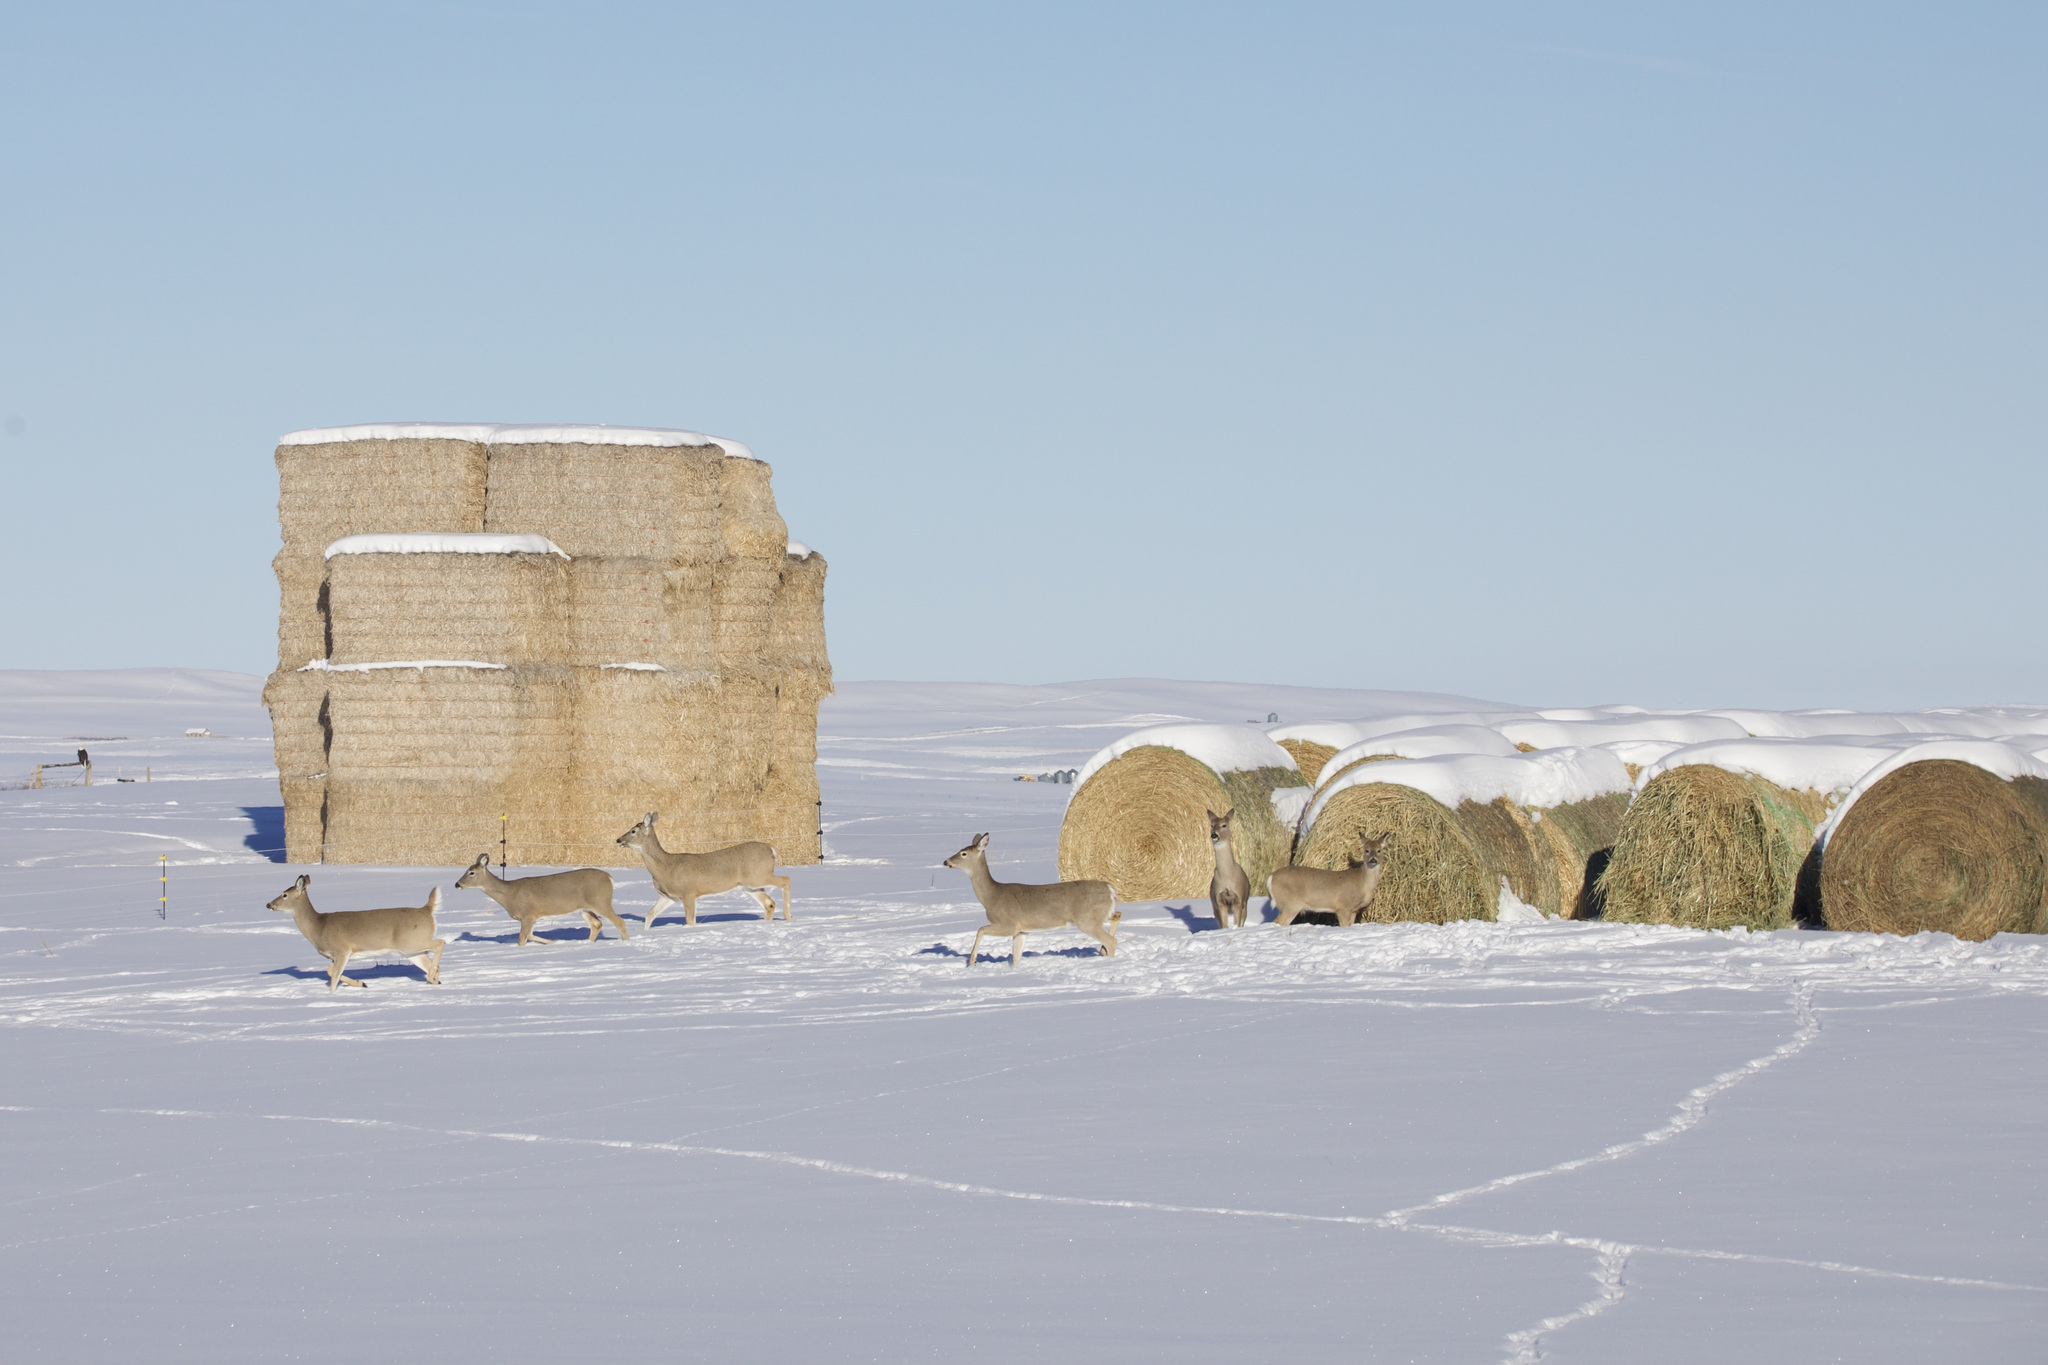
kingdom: Animalia
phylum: Chordata
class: Mammalia
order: Artiodactyla
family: Cervidae
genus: Odocoileus
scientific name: Odocoileus virginianus
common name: White-tailed deer
